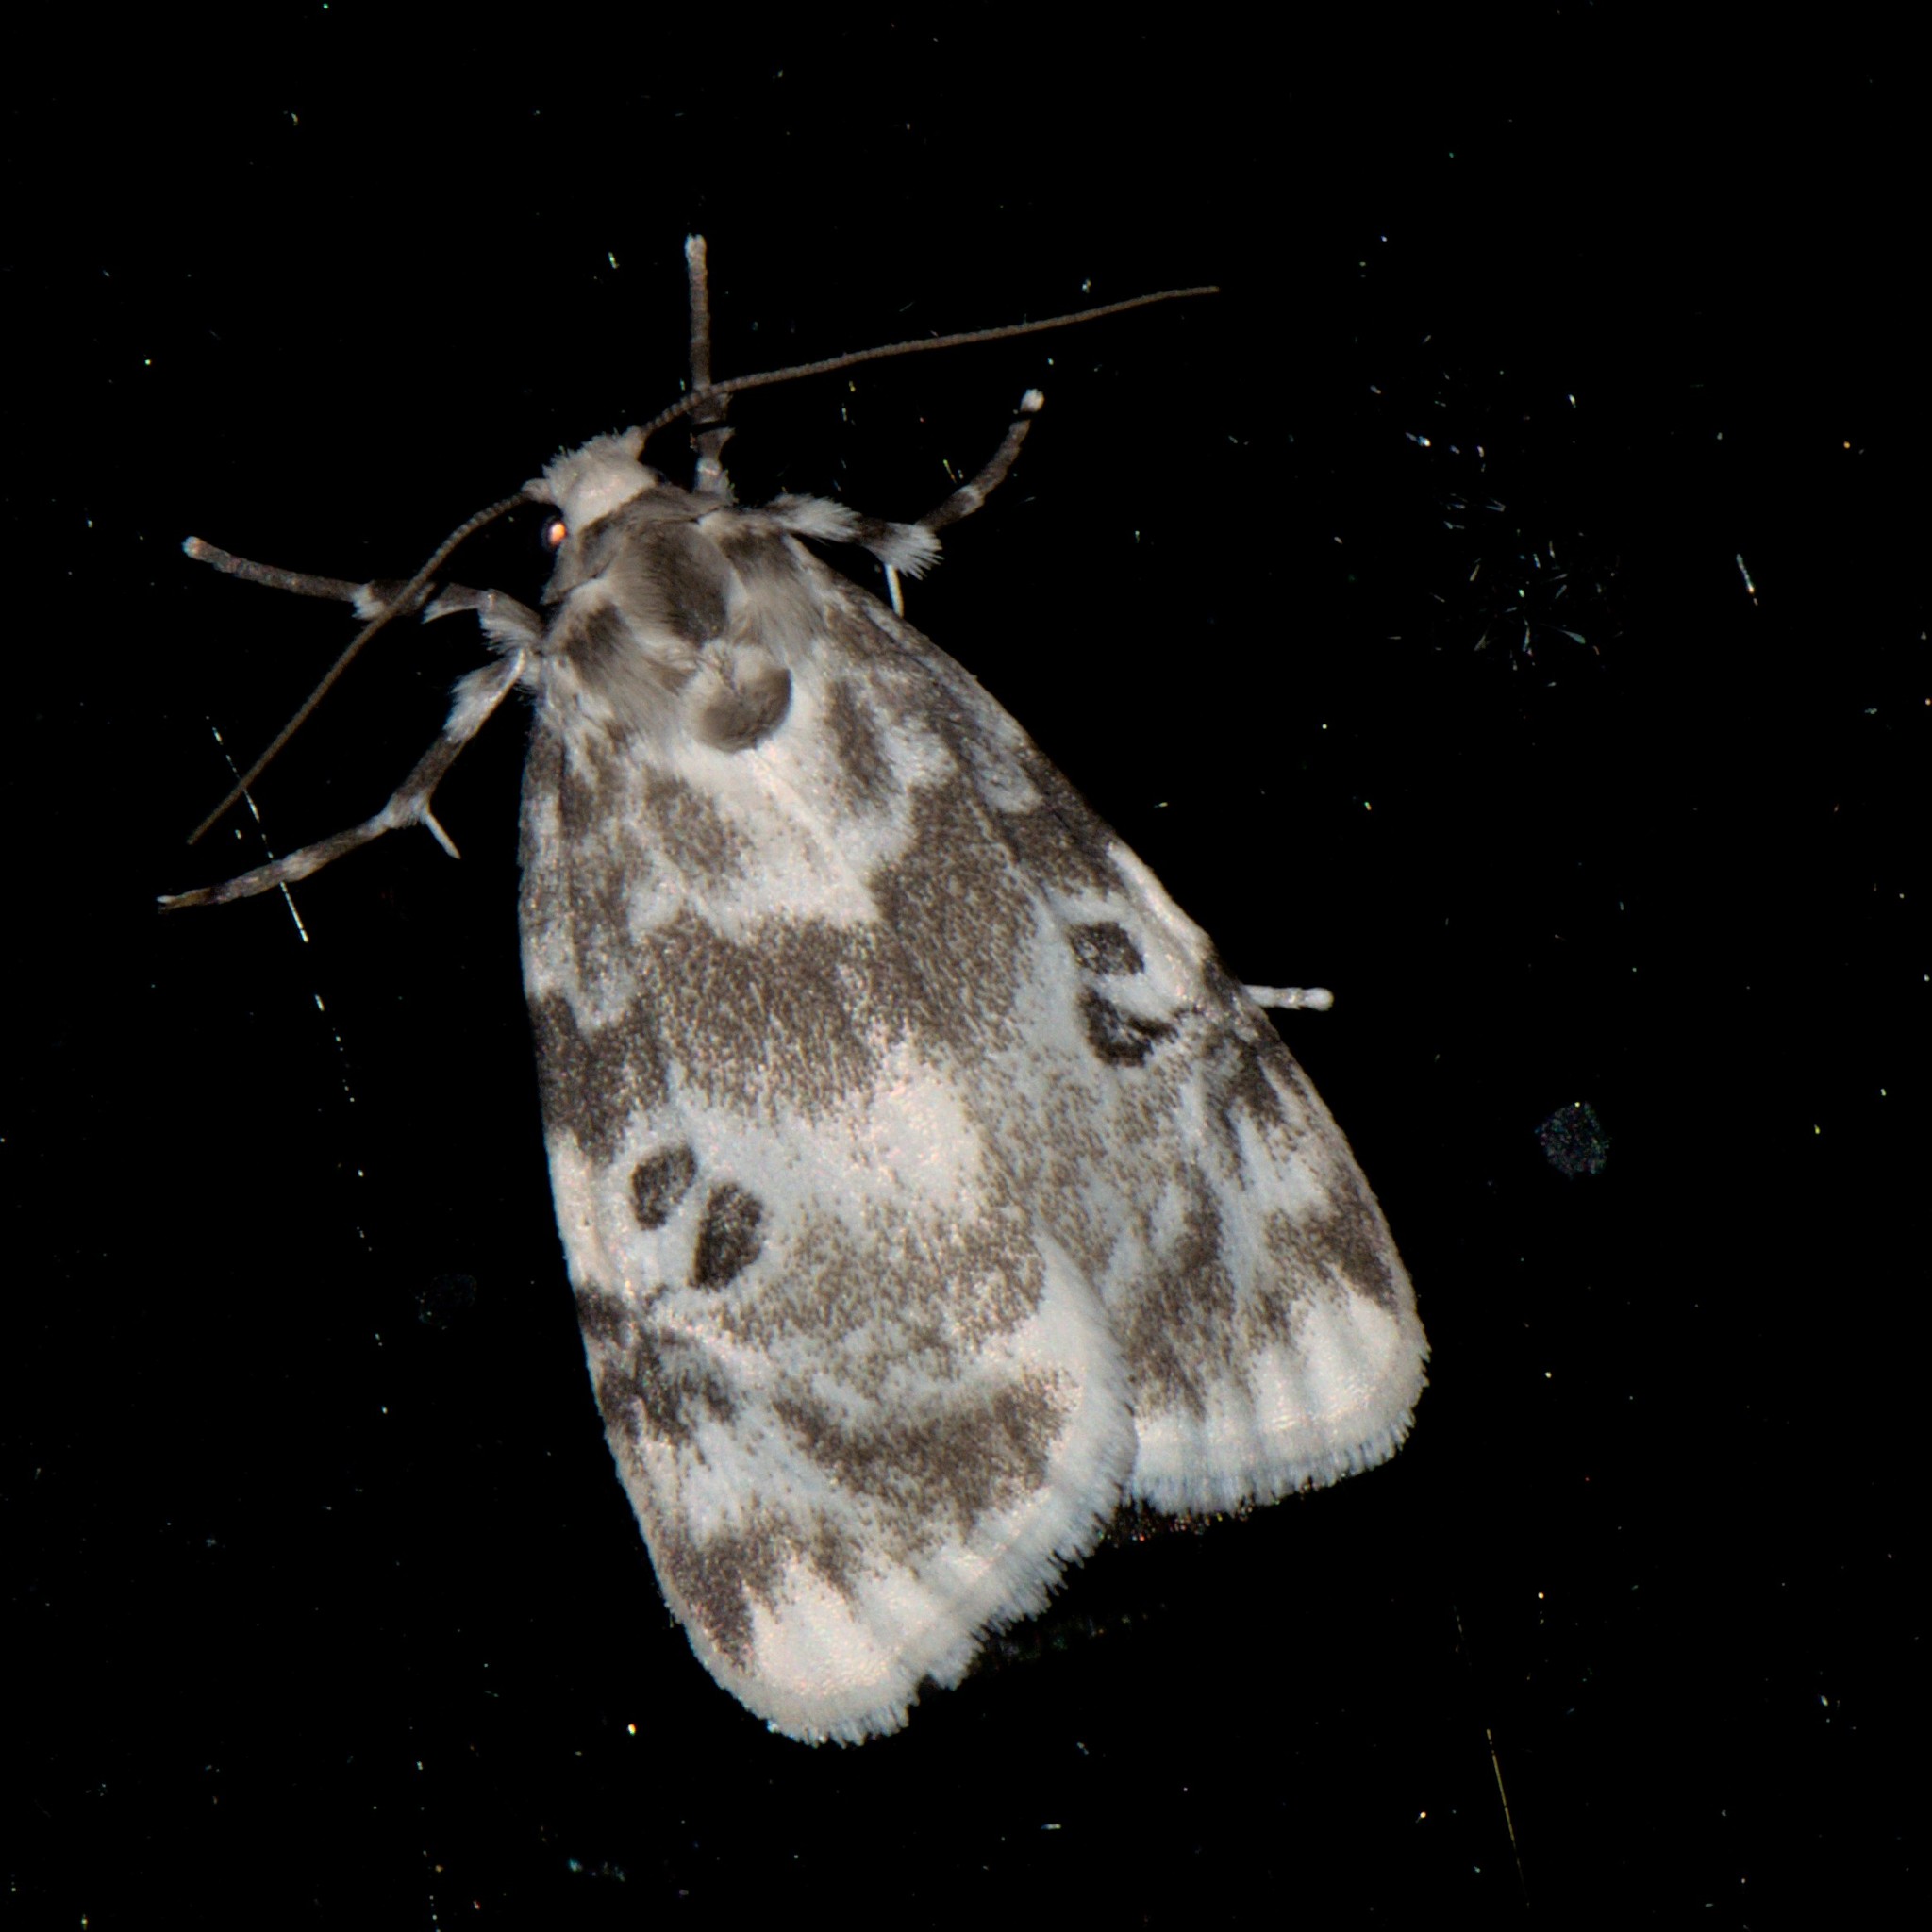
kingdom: Animalia
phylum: Arthropoda
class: Insecta
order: Lepidoptera
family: Erebidae
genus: Cyana
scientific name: Cyana detrita
